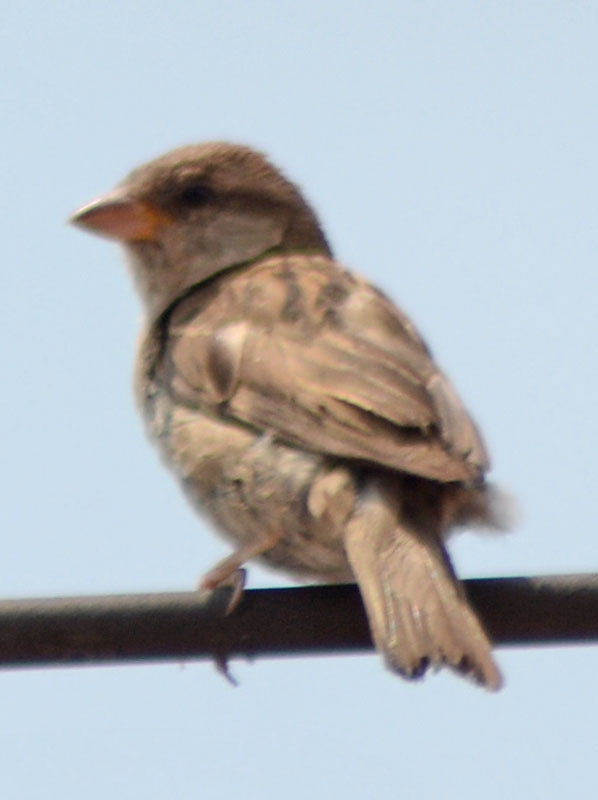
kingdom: Animalia
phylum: Chordata
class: Aves
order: Passeriformes
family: Passeridae
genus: Passer
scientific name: Passer domesticus
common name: House sparrow
